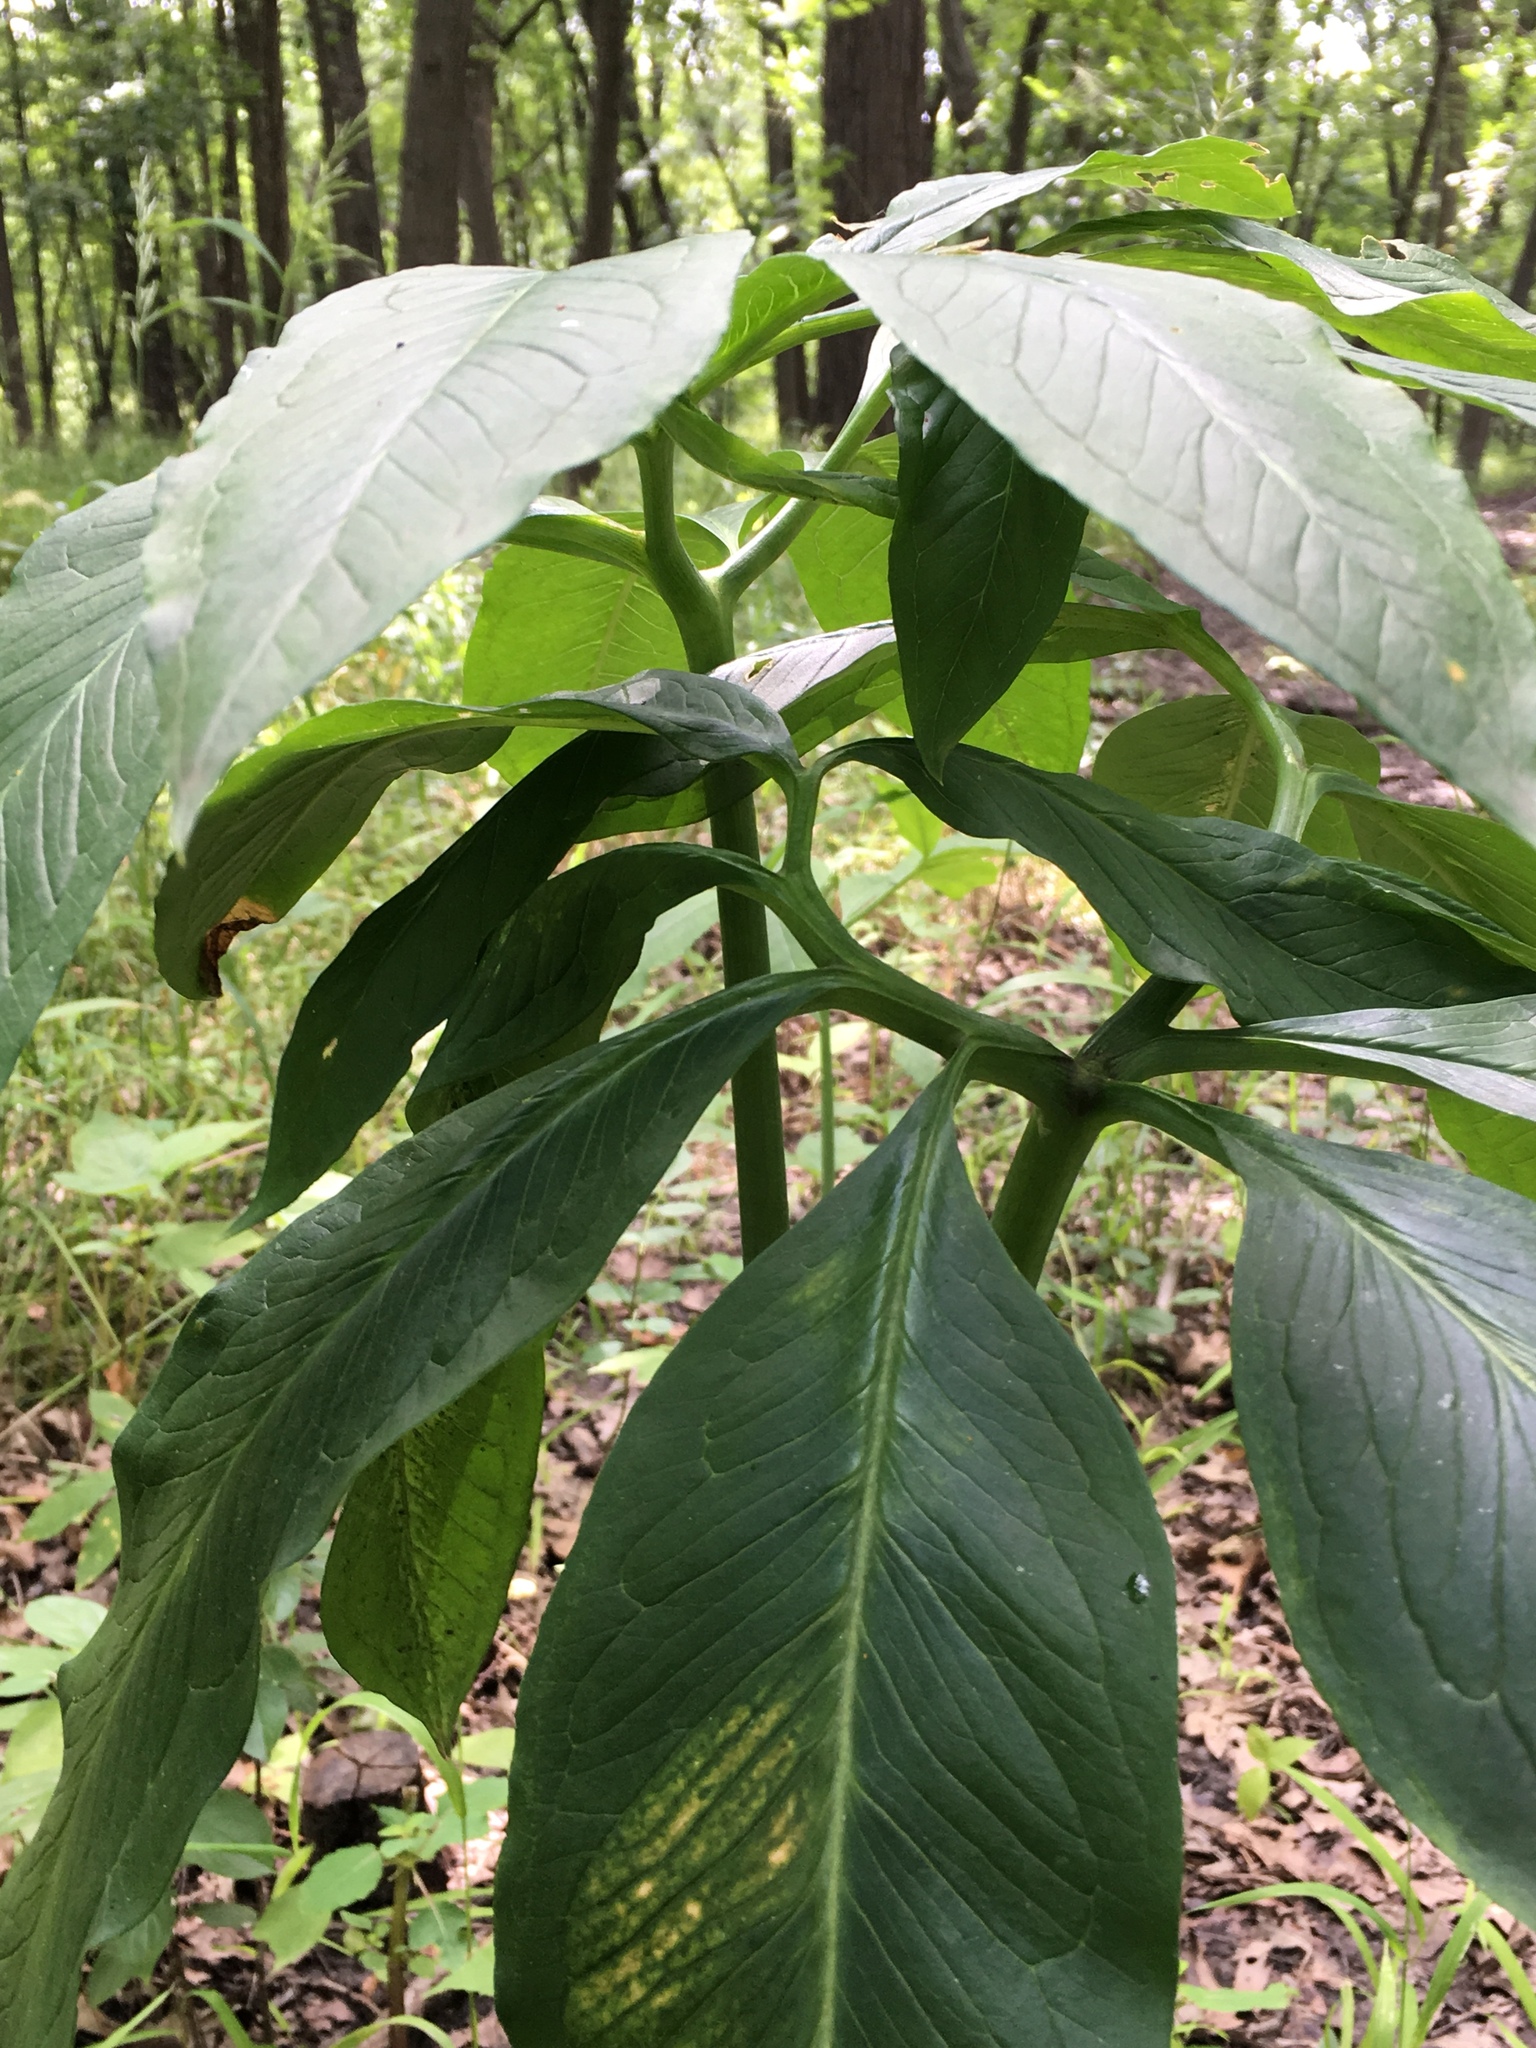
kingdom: Plantae
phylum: Tracheophyta
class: Liliopsida
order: Alismatales
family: Araceae
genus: Arisaema
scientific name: Arisaema dracontium
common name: Dragon-arum
